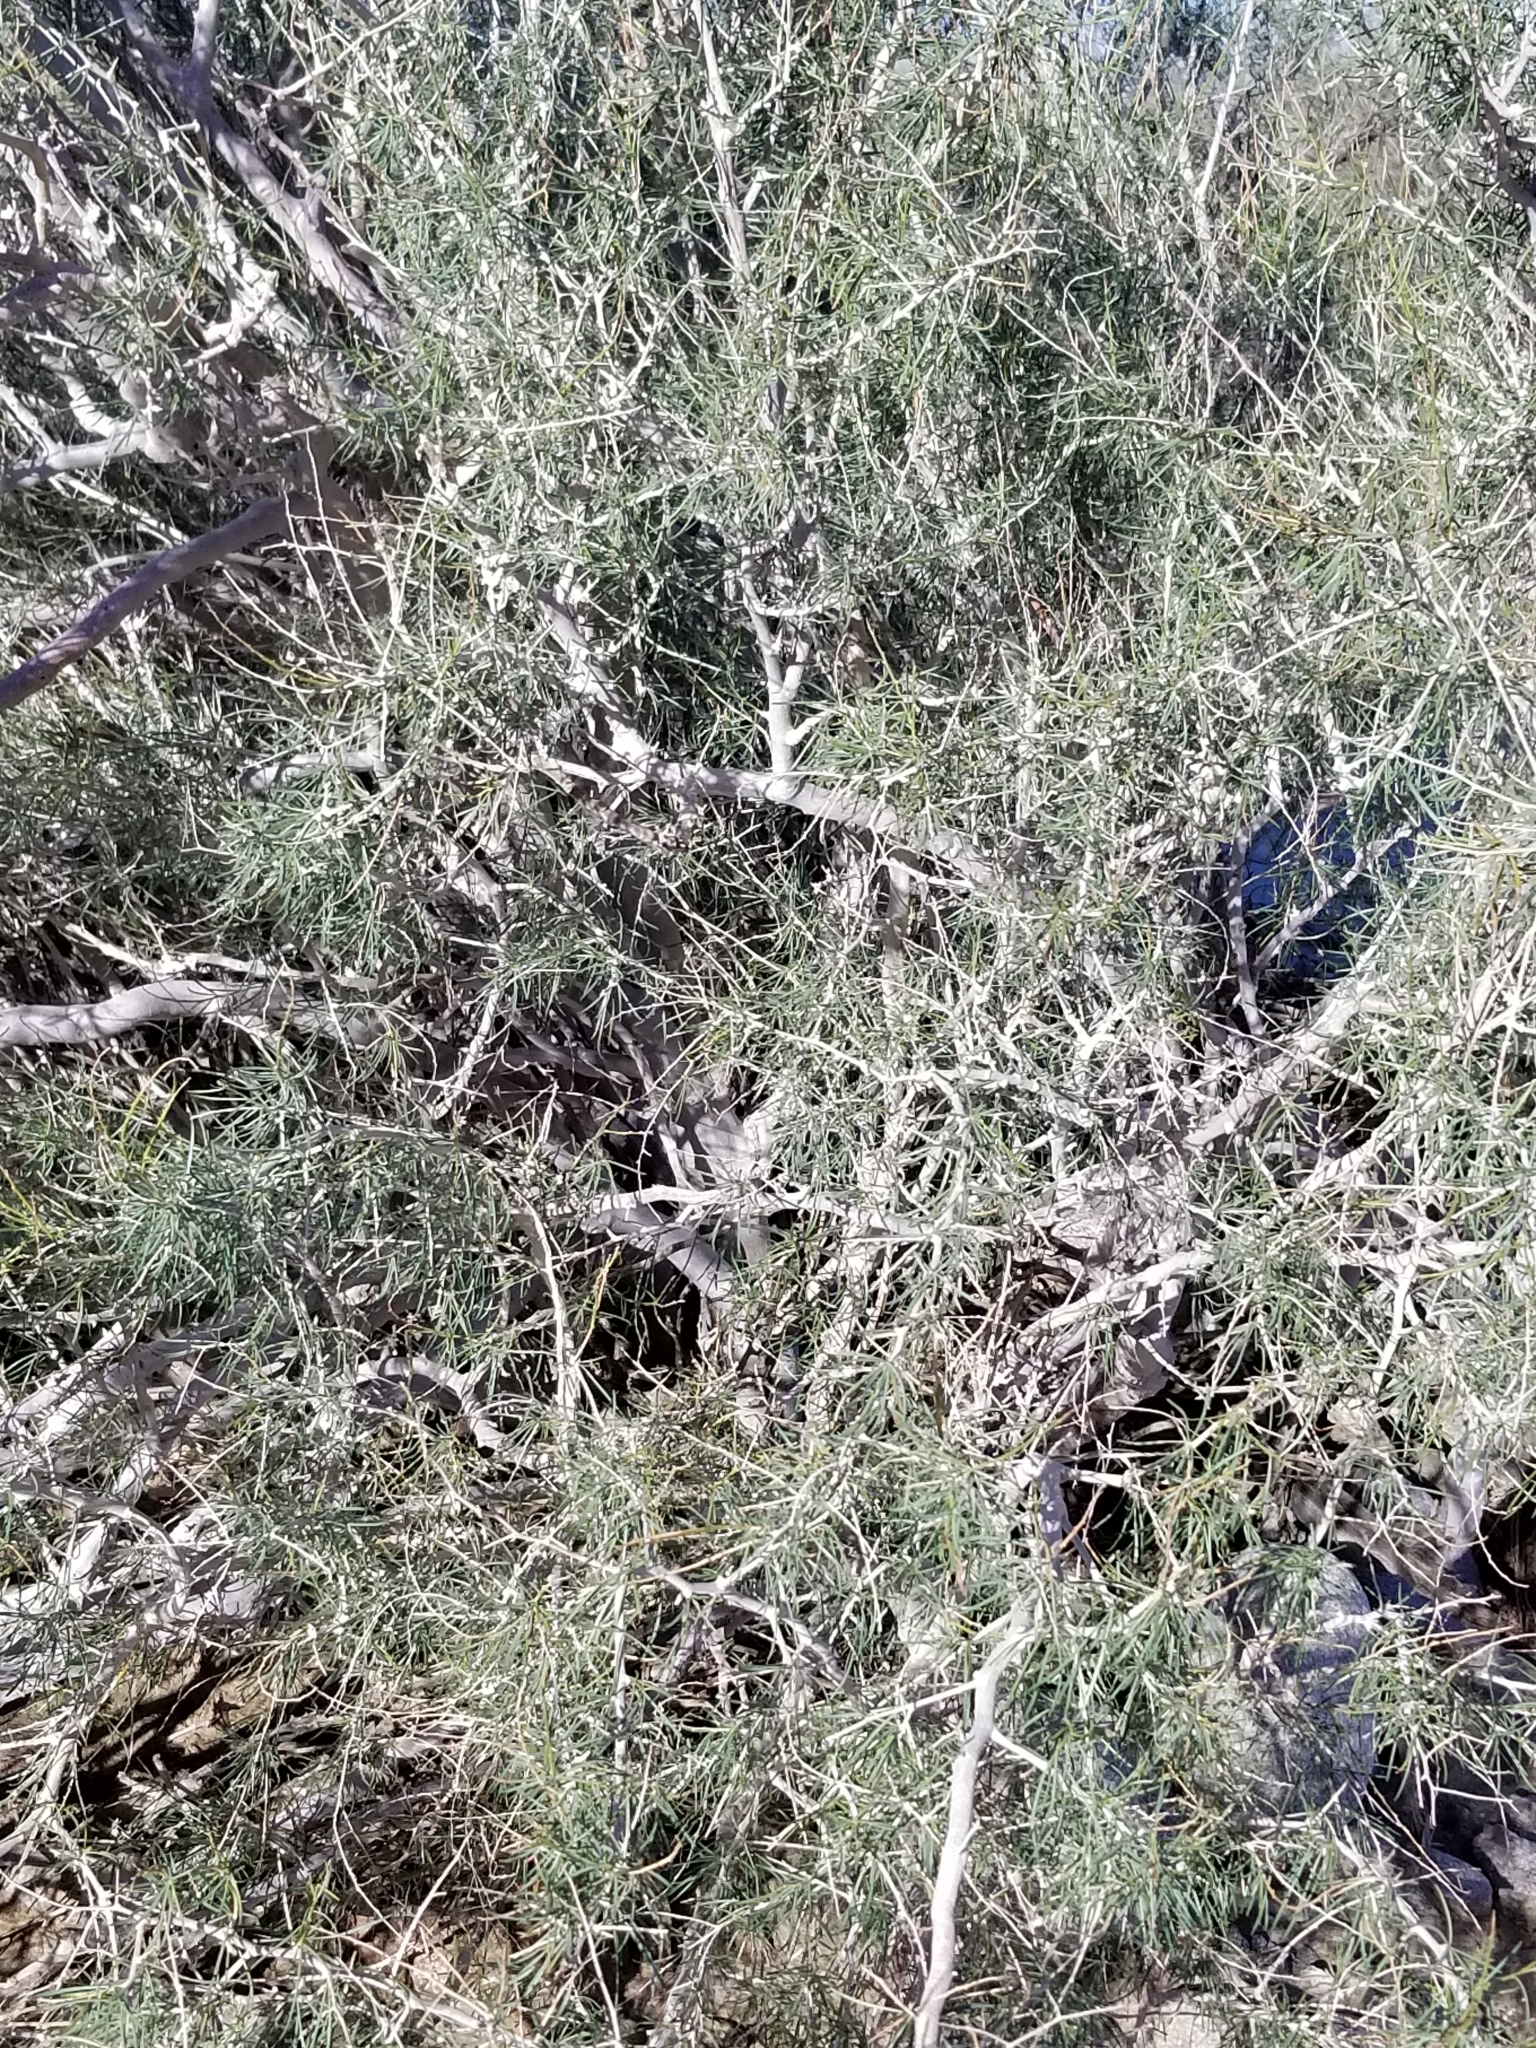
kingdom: Plantae
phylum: Tracheophyta
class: Magnoliopsida
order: Fabales
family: Fabaceae
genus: Psorothamnus
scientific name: Psorothamnus schottii
